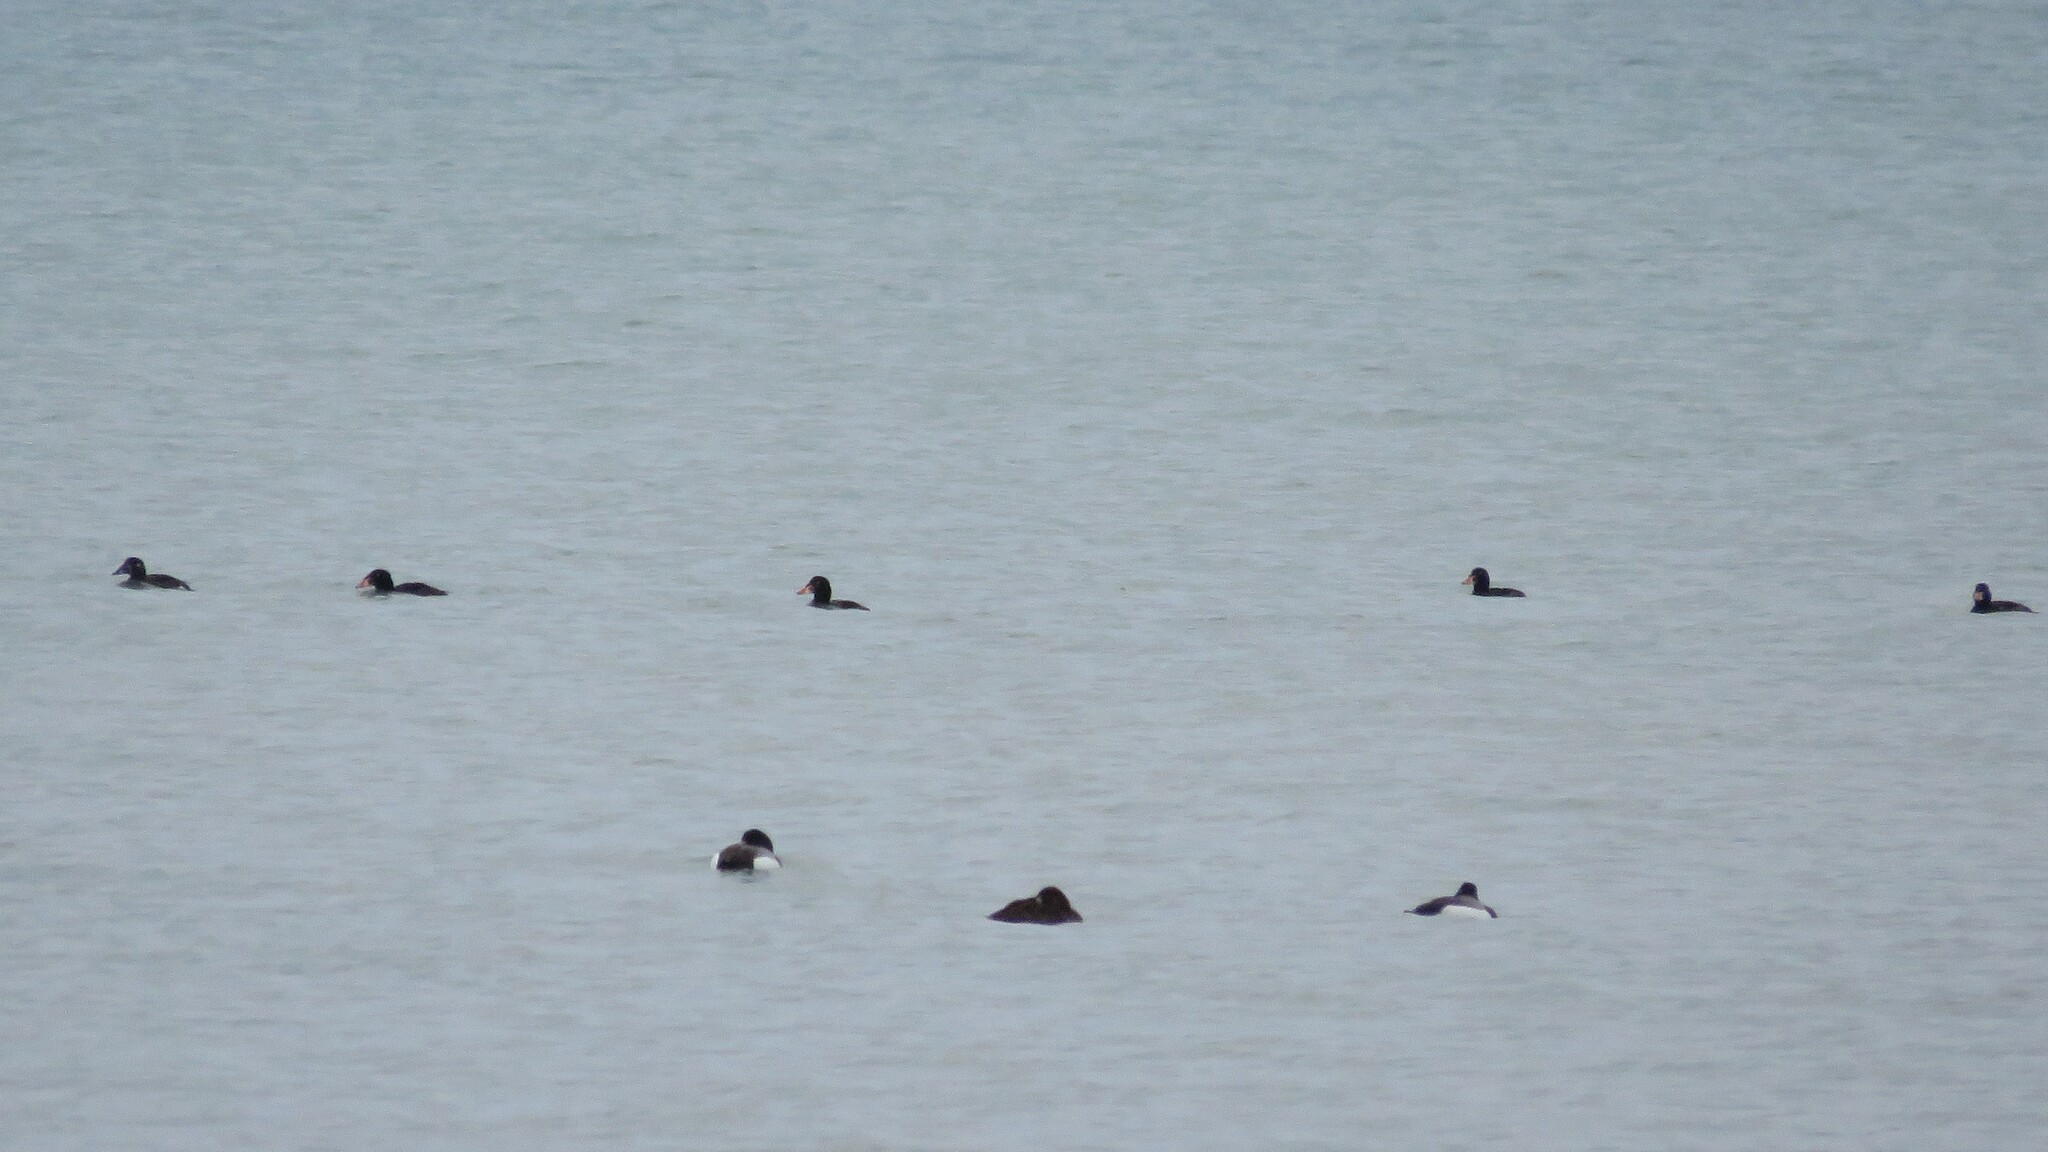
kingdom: Animalia
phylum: Chordata
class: Aves
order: Anseriformes
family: Anatidae
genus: Melanitta
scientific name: Melanitta perspicillata
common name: Surf scoter
